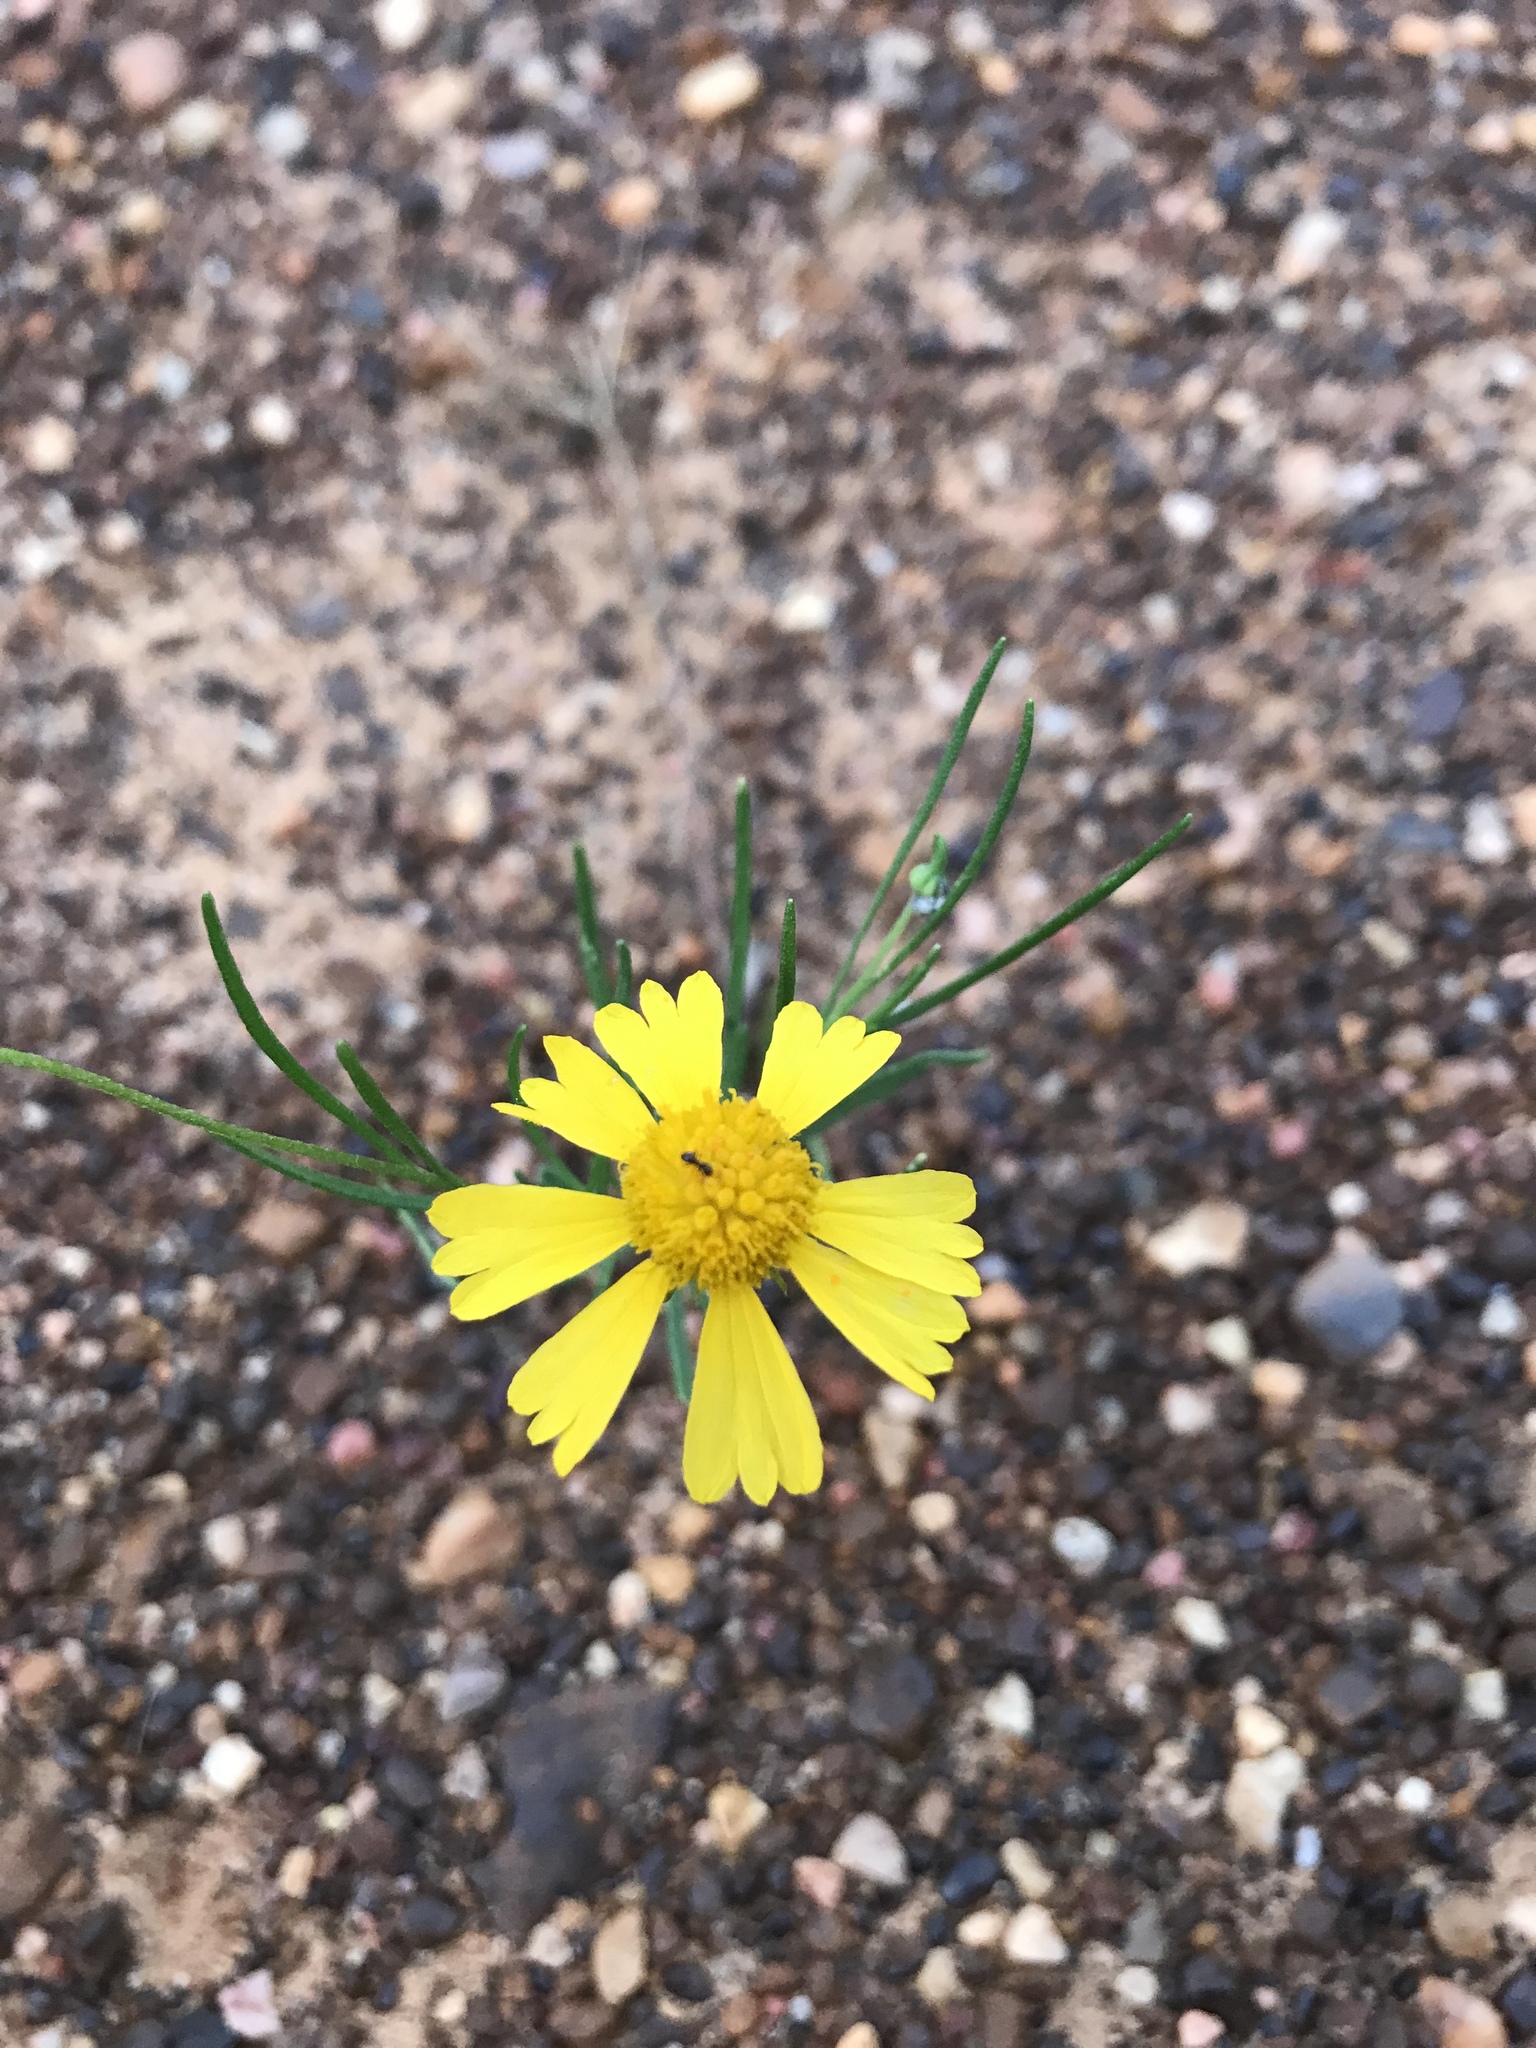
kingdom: Plantae
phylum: Tracheophyta
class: Magnoliopsida
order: Asterales
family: Asteraceae
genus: Helenium
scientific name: Helenium amarum
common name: Bitter sneezeweed
